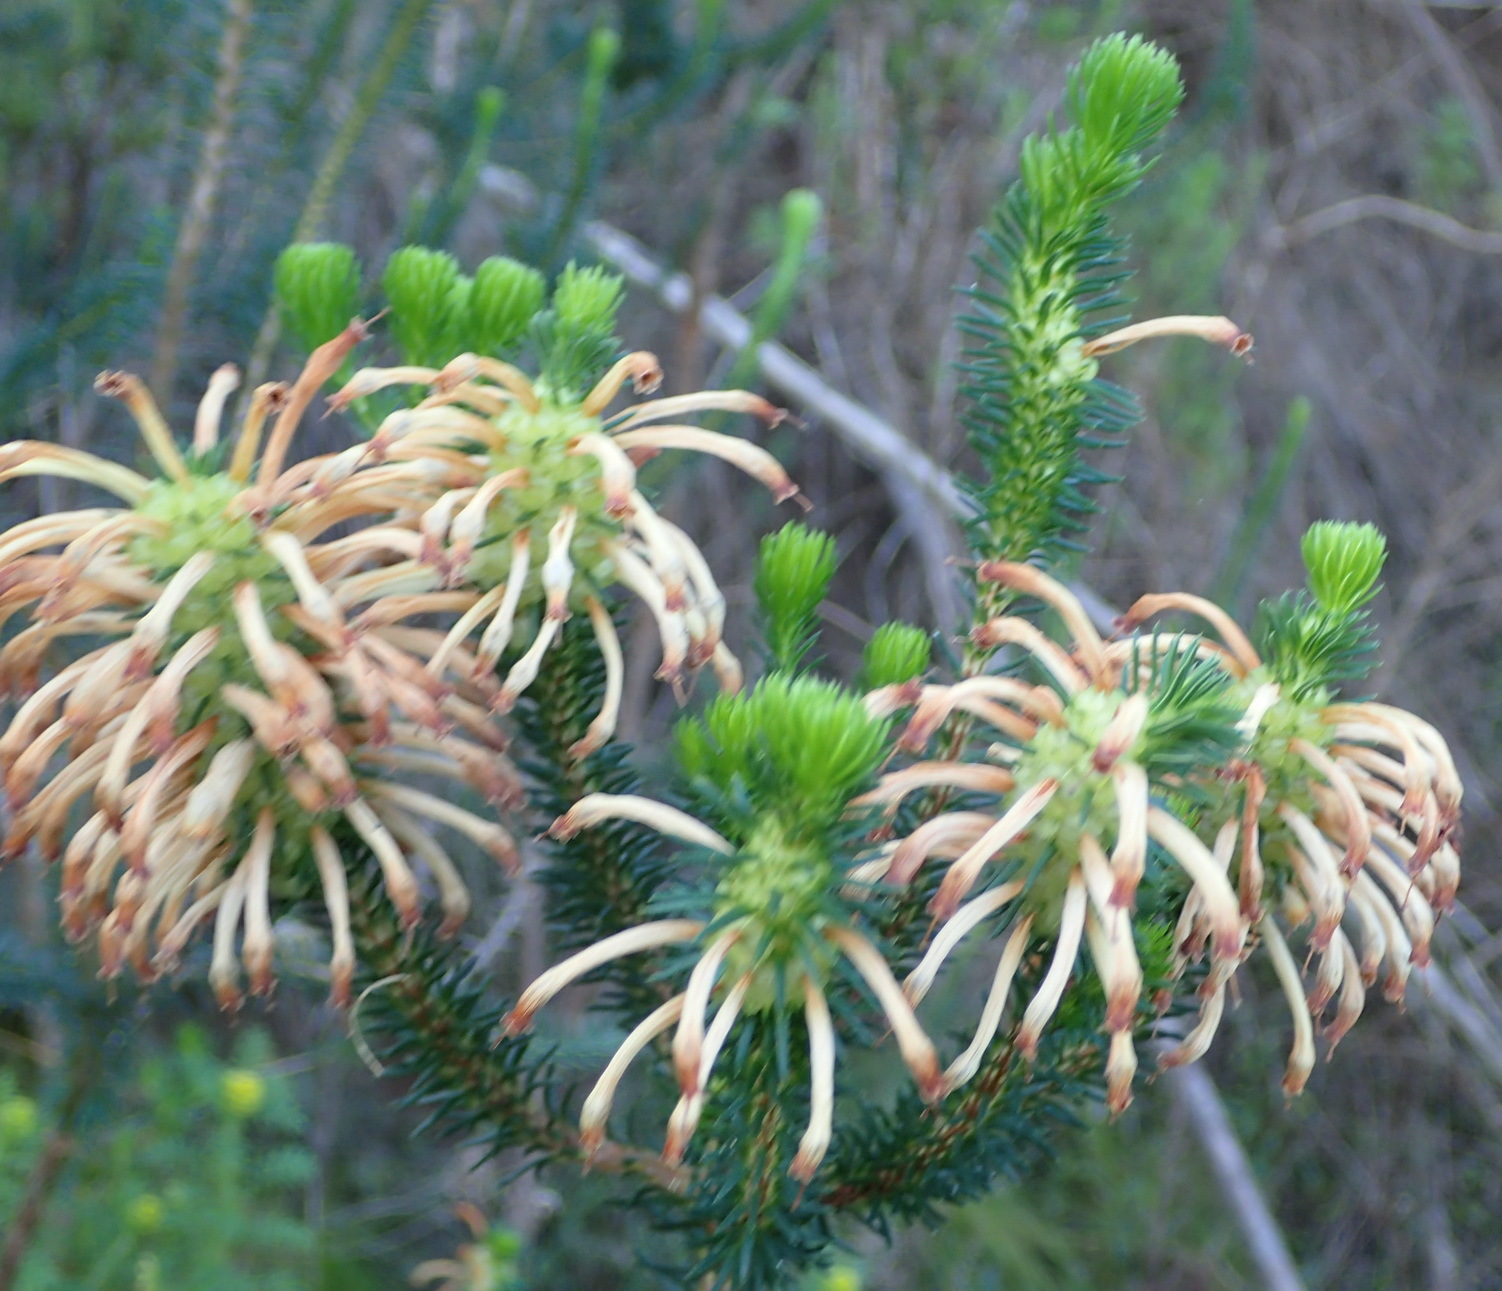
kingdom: Plantae
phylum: Tracheophyta
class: Magnoliopsida
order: Ericales
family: Ericaceae
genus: Erica
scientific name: Erica sessiliflora
